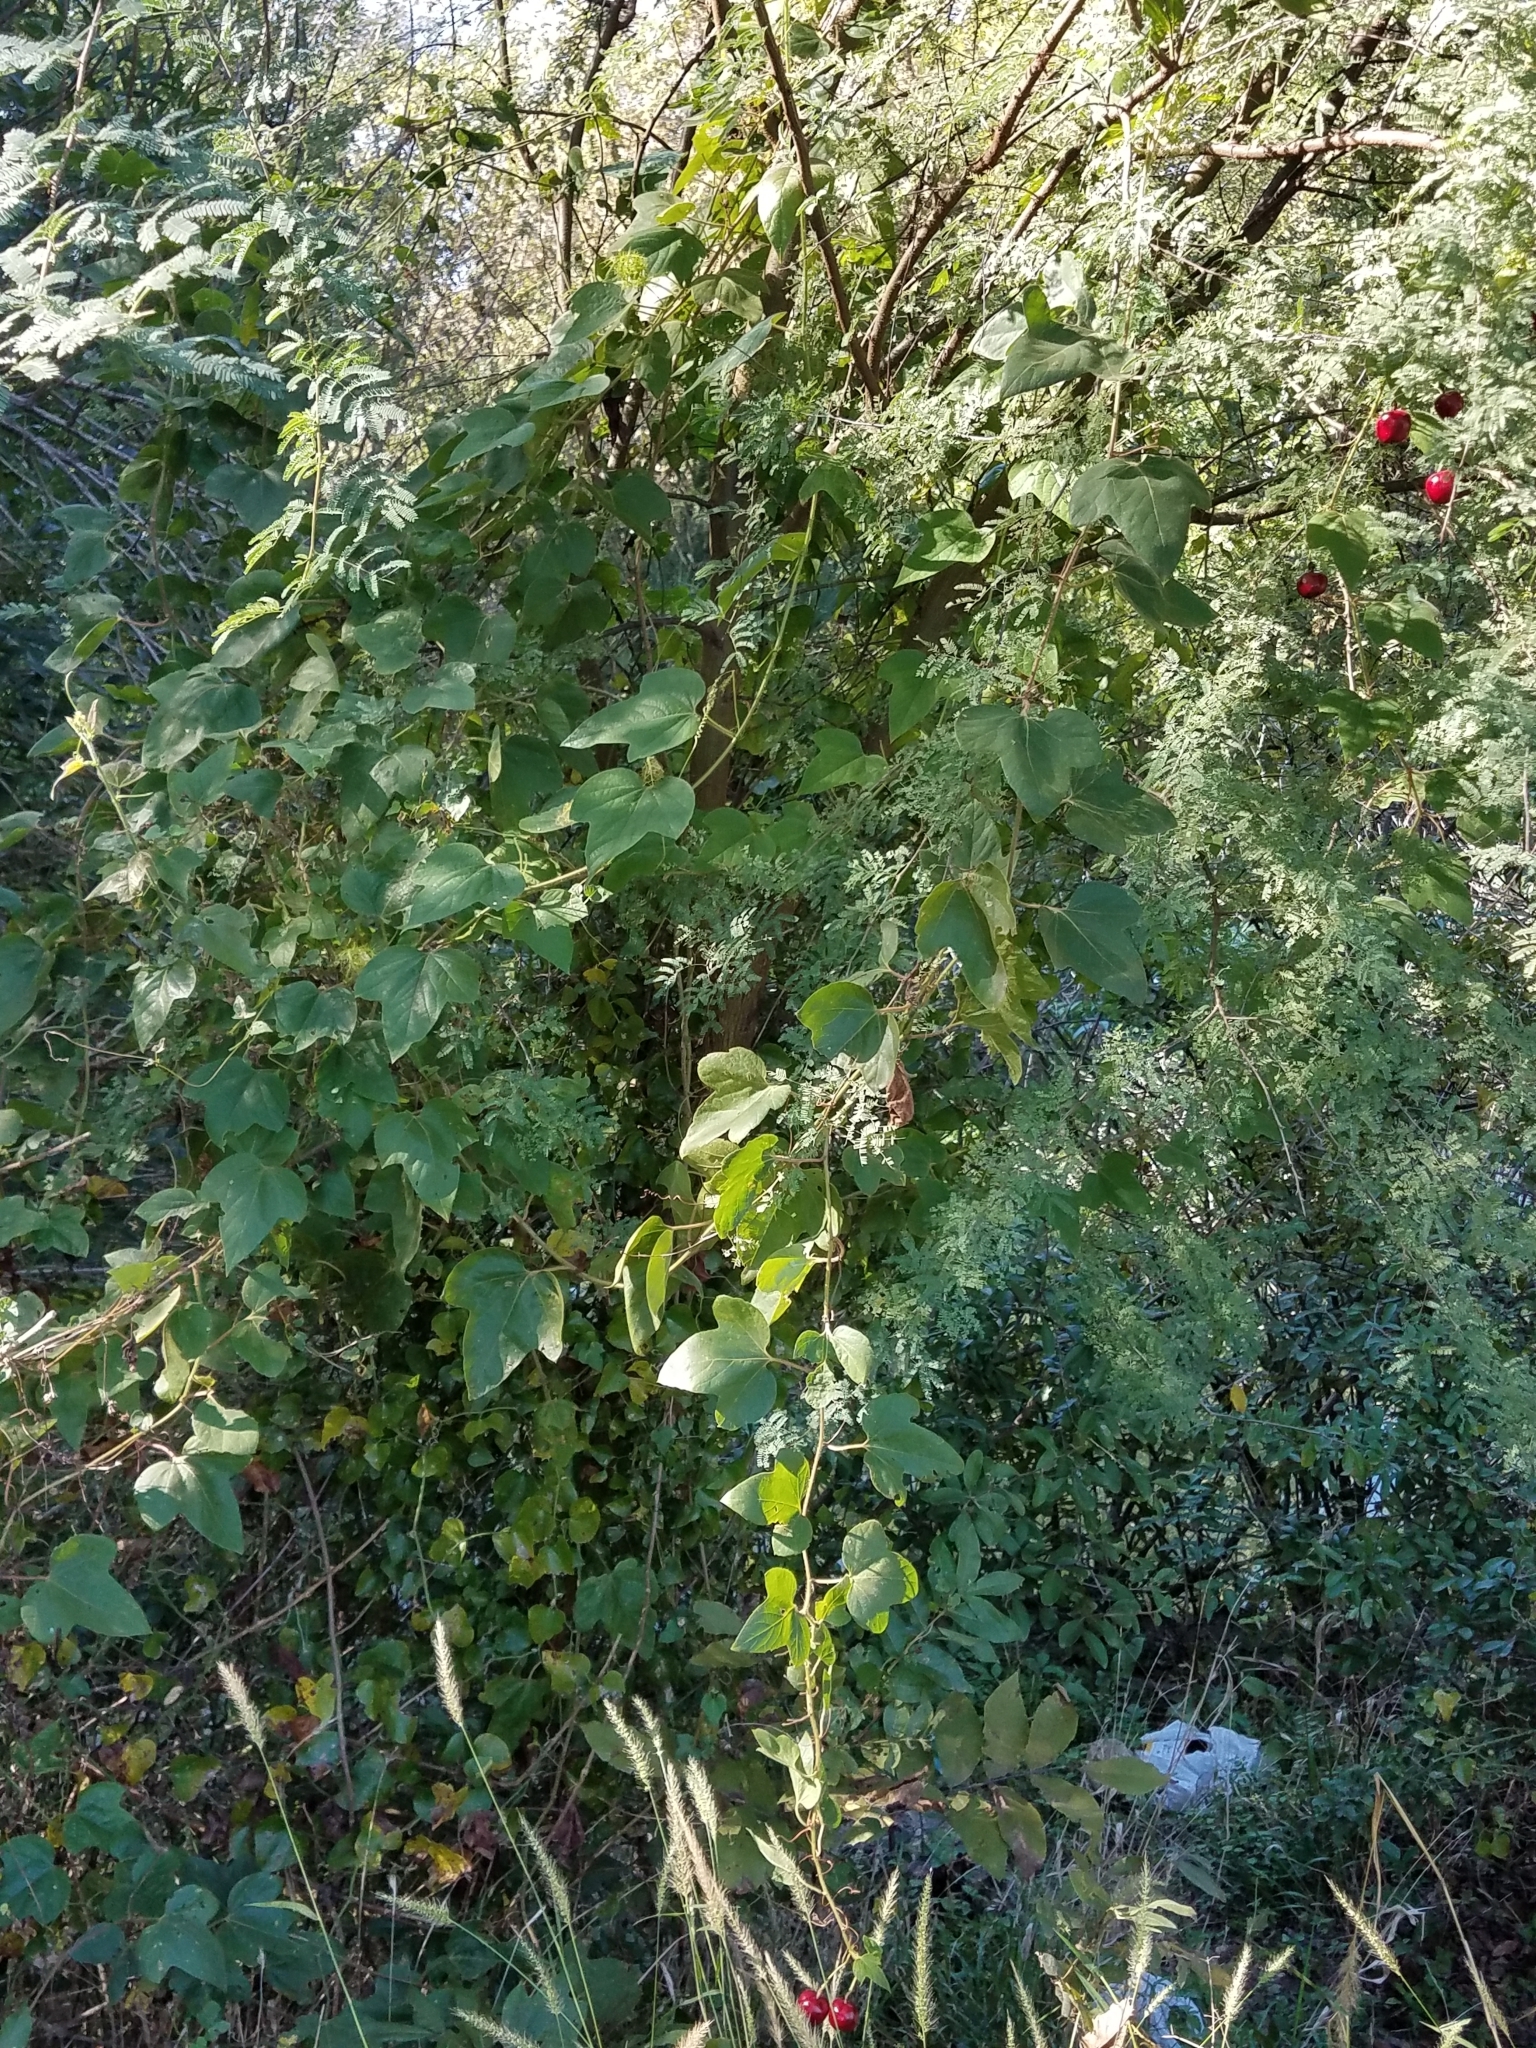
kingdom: Plantae
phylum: Tracheophyta
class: Magnoliopsida
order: Malpighiales
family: Passifloraceae
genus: Passiflora
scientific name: Passiflora
